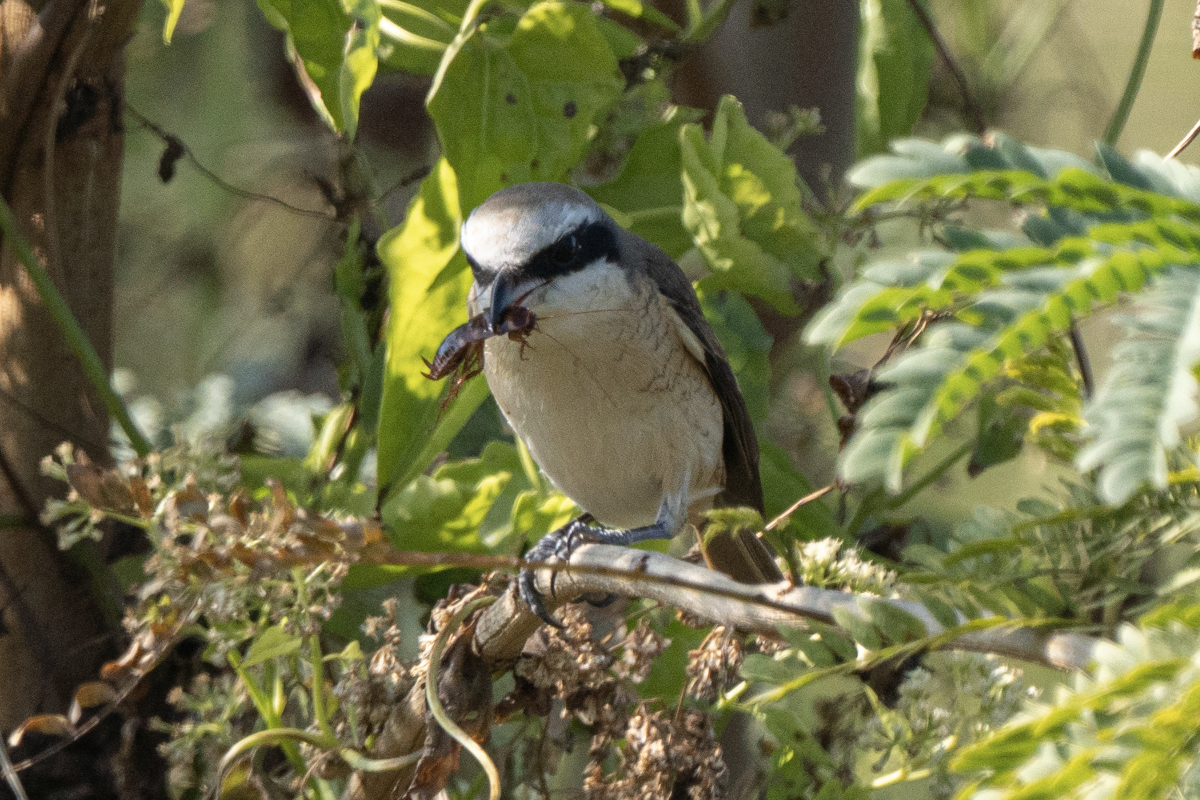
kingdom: Animalia
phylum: Chordata
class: Aves
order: Passeriformes
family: Laniidae
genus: Lanius
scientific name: Lanius cristatus
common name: Brown shrike
